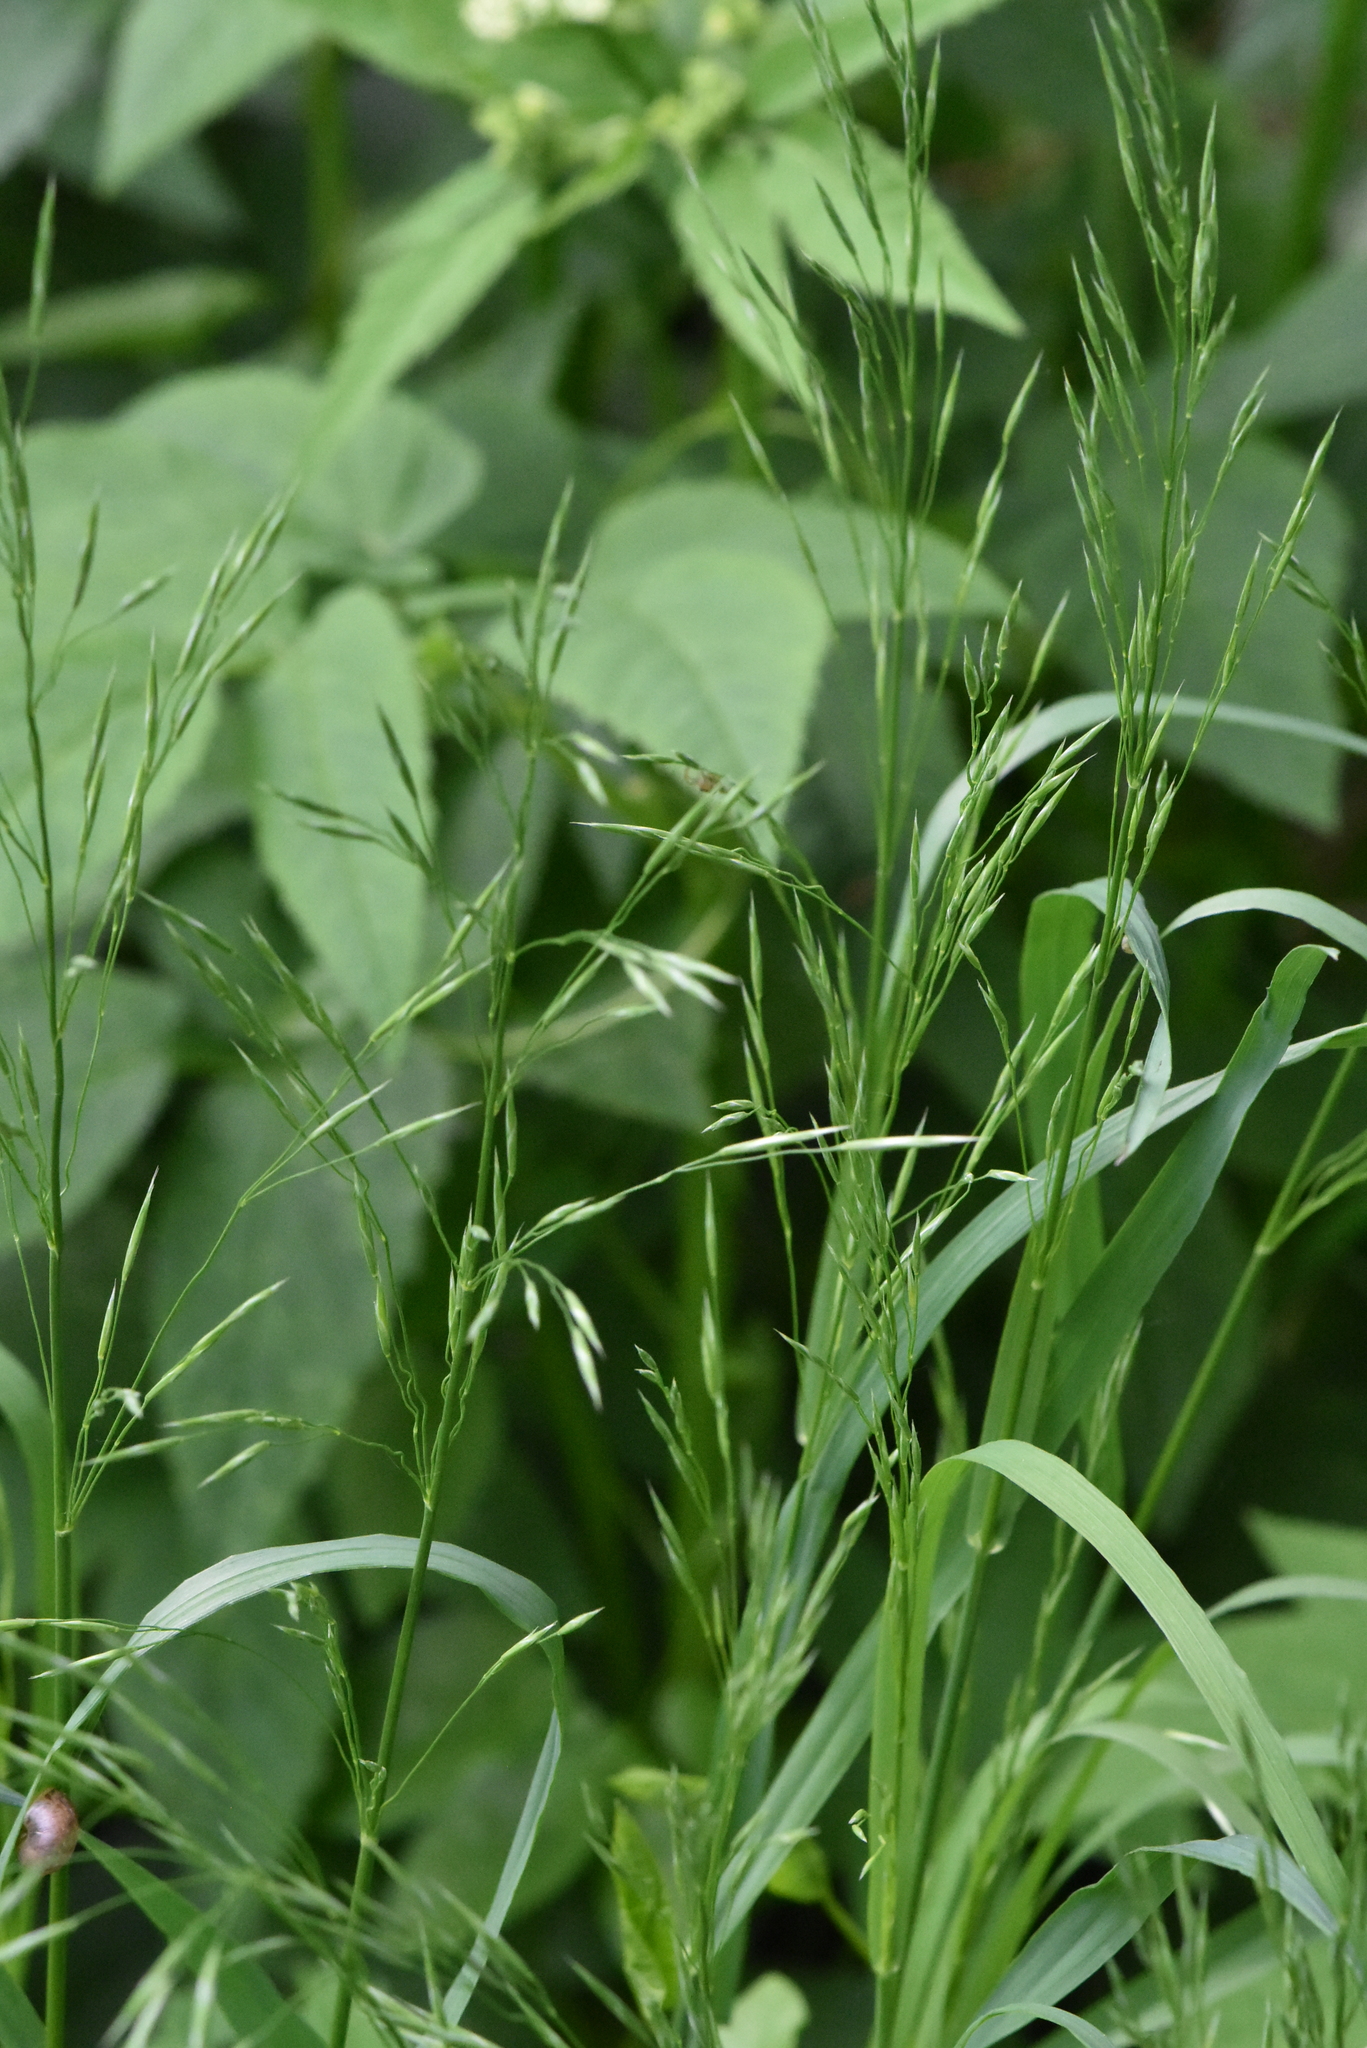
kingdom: Plantae
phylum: Tracheophyta
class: Liliopsida
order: Poales
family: Poaceae
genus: Bromus
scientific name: Bromus inermis
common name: Smooth brome
